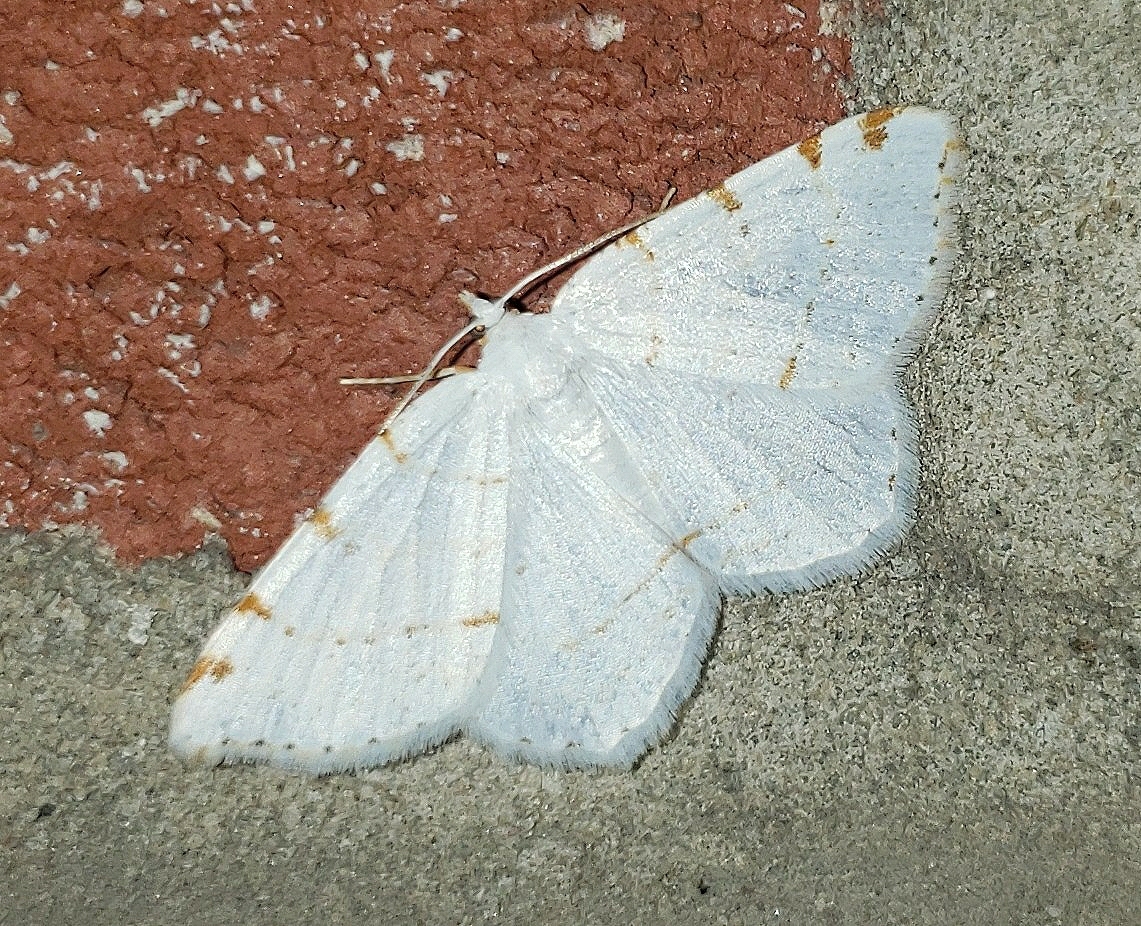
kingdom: Animalia
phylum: Arthropoda
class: Insecta
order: Lepidoptera
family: Geometridae
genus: Macaria
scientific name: Macaria pustularia
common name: Lesser maple spanworm moth
